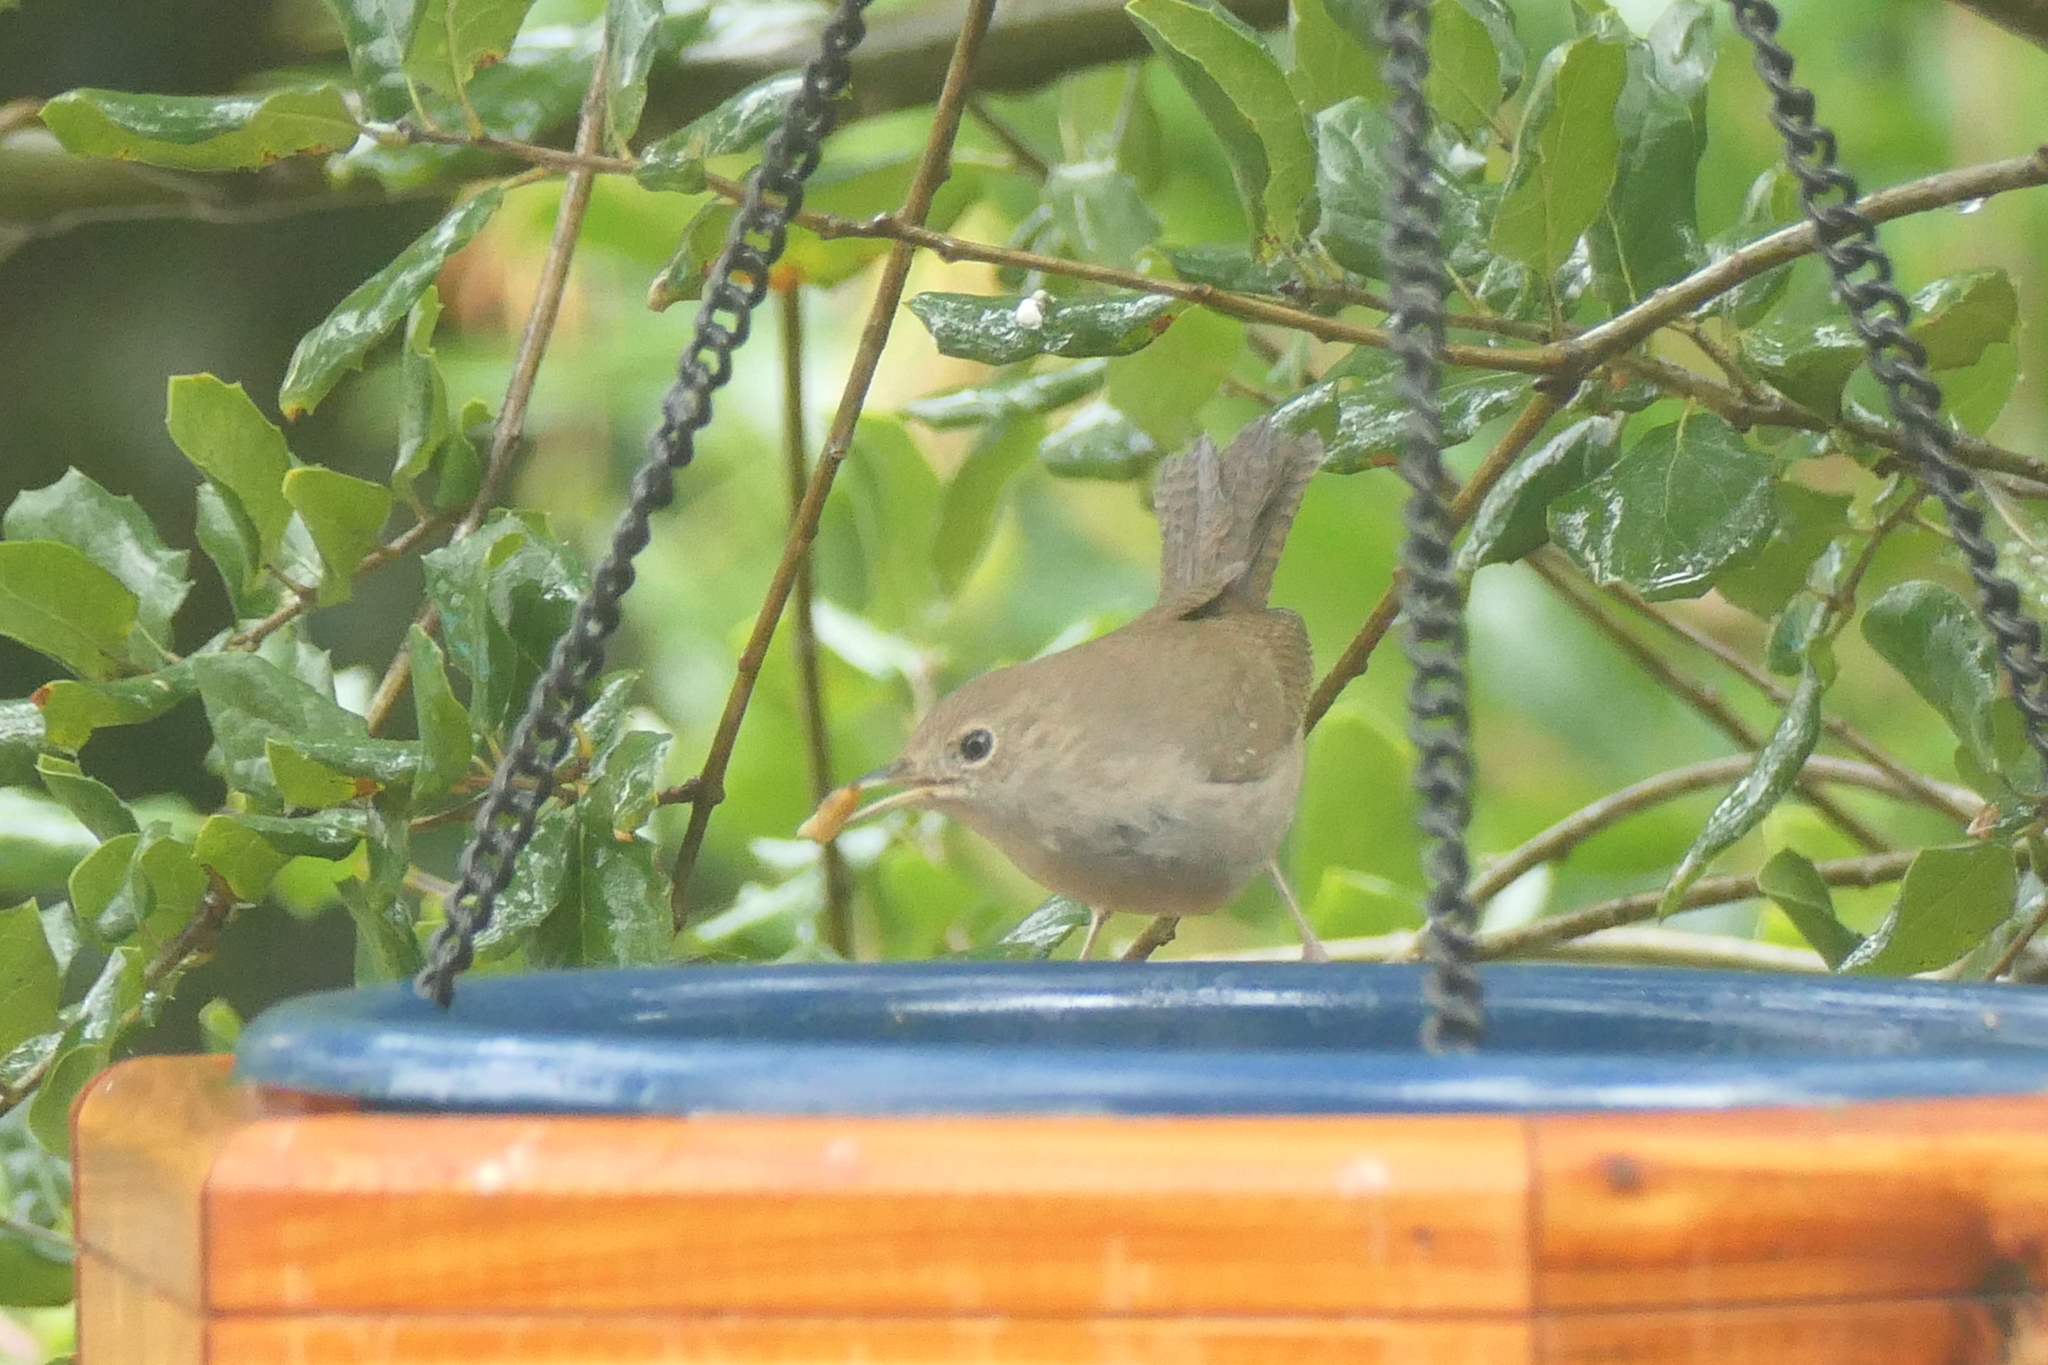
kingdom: Animalia
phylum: Chordata
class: Aves
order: Passeriformes
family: Troglodytidae
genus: Troglodytes
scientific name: Troglodytes aedon
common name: House wren
